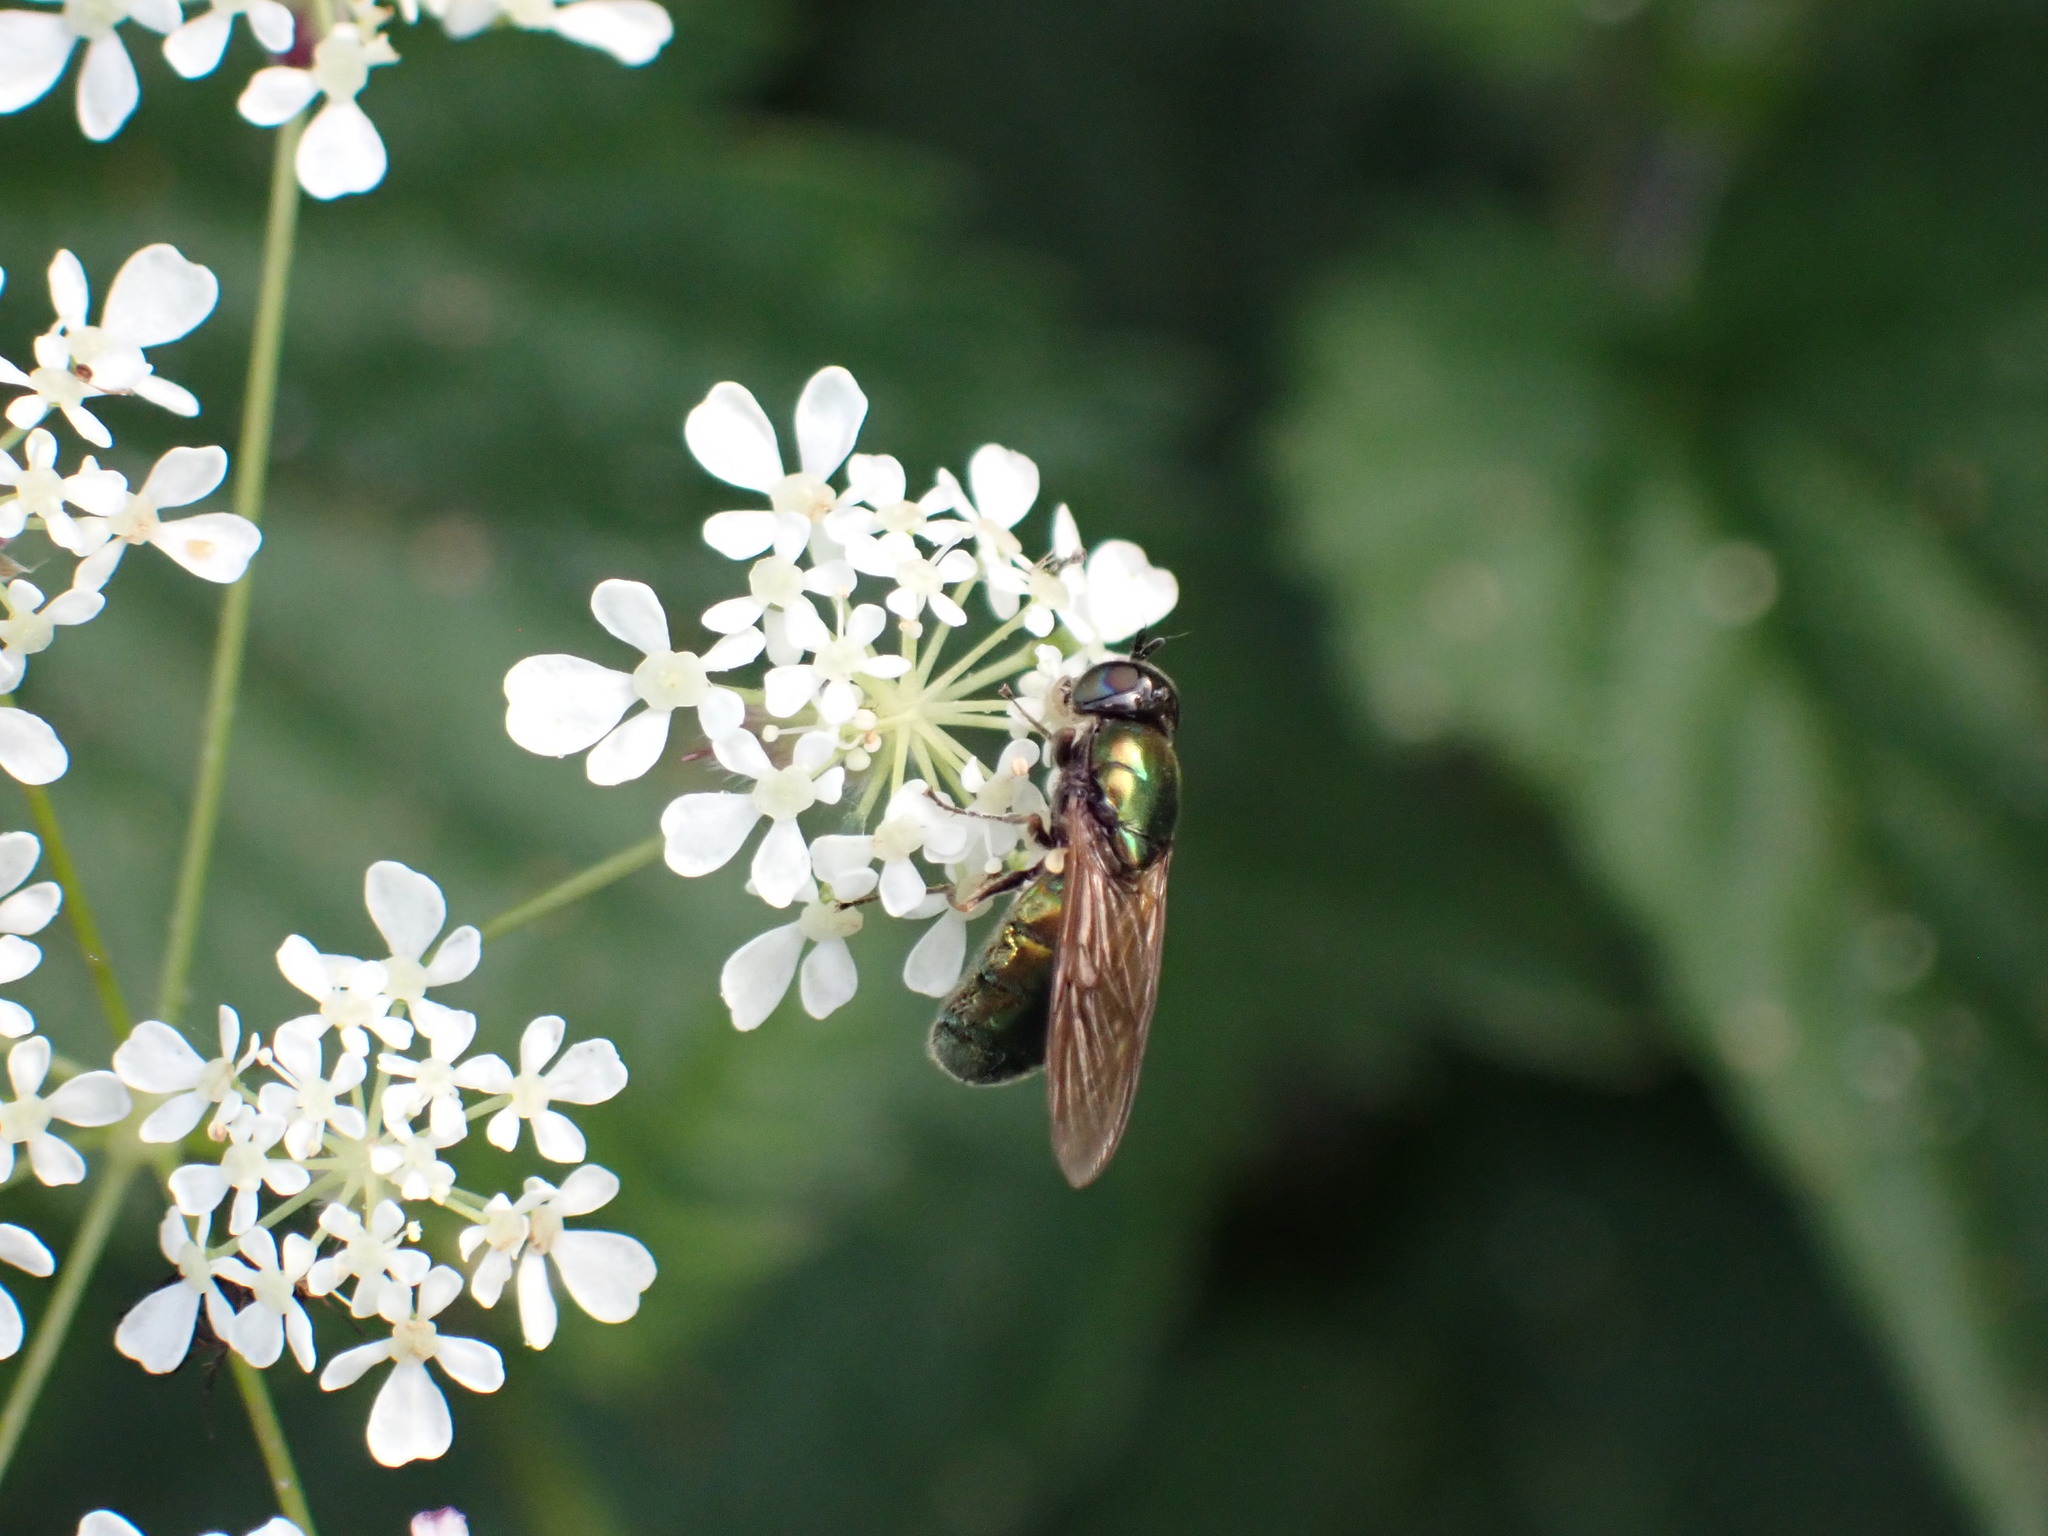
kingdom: Animalia
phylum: Arthropoda
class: Insecta
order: Diptera
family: Stratiomyidae
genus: Chloromyia
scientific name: Chloromyia formosa
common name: Soldier fly
